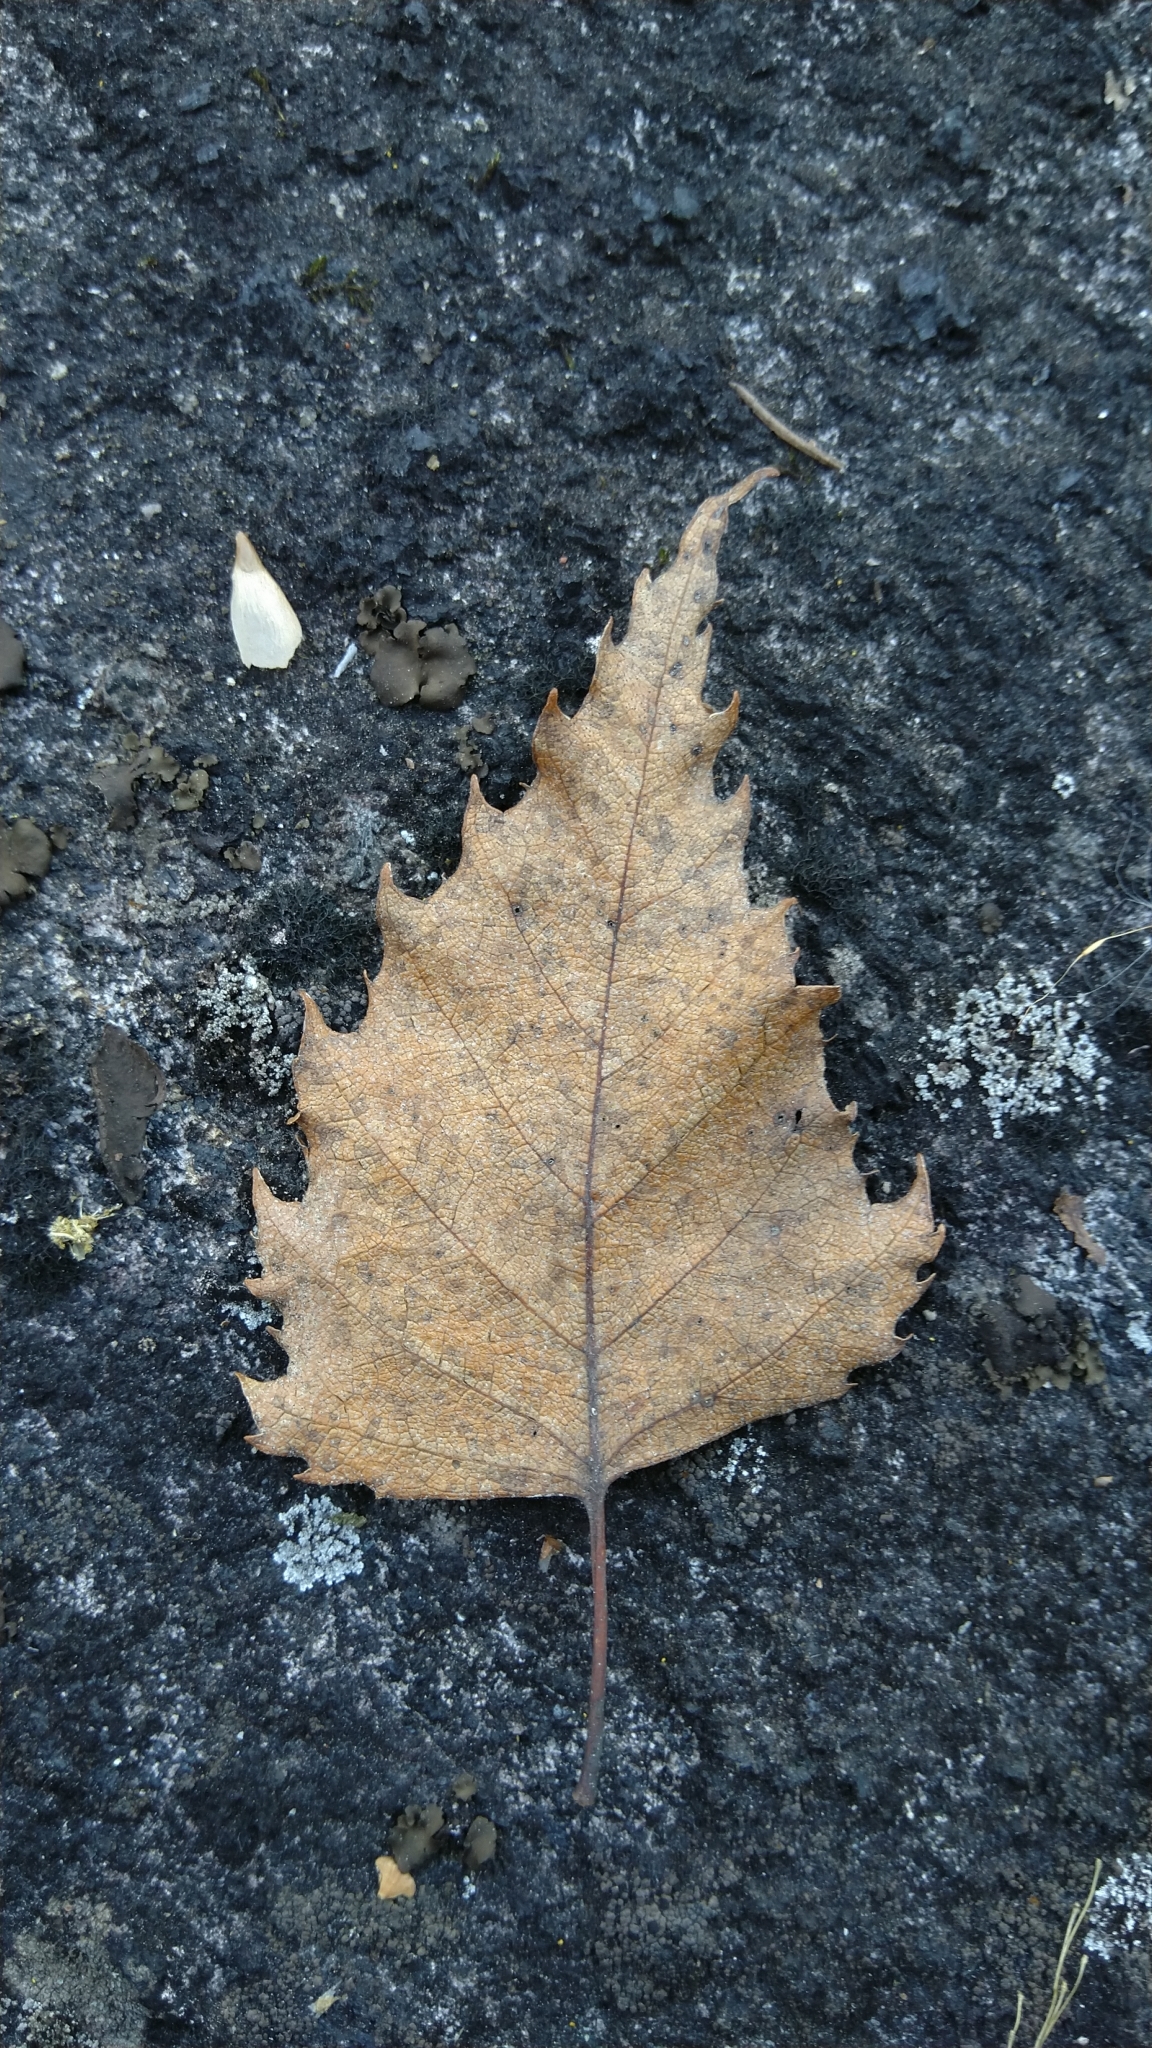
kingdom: Plantae
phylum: Tracheophyta
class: Magnoliopsida
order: Fagales
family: Betulaceae
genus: Betula
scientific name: Betula pendula
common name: Silver birch
